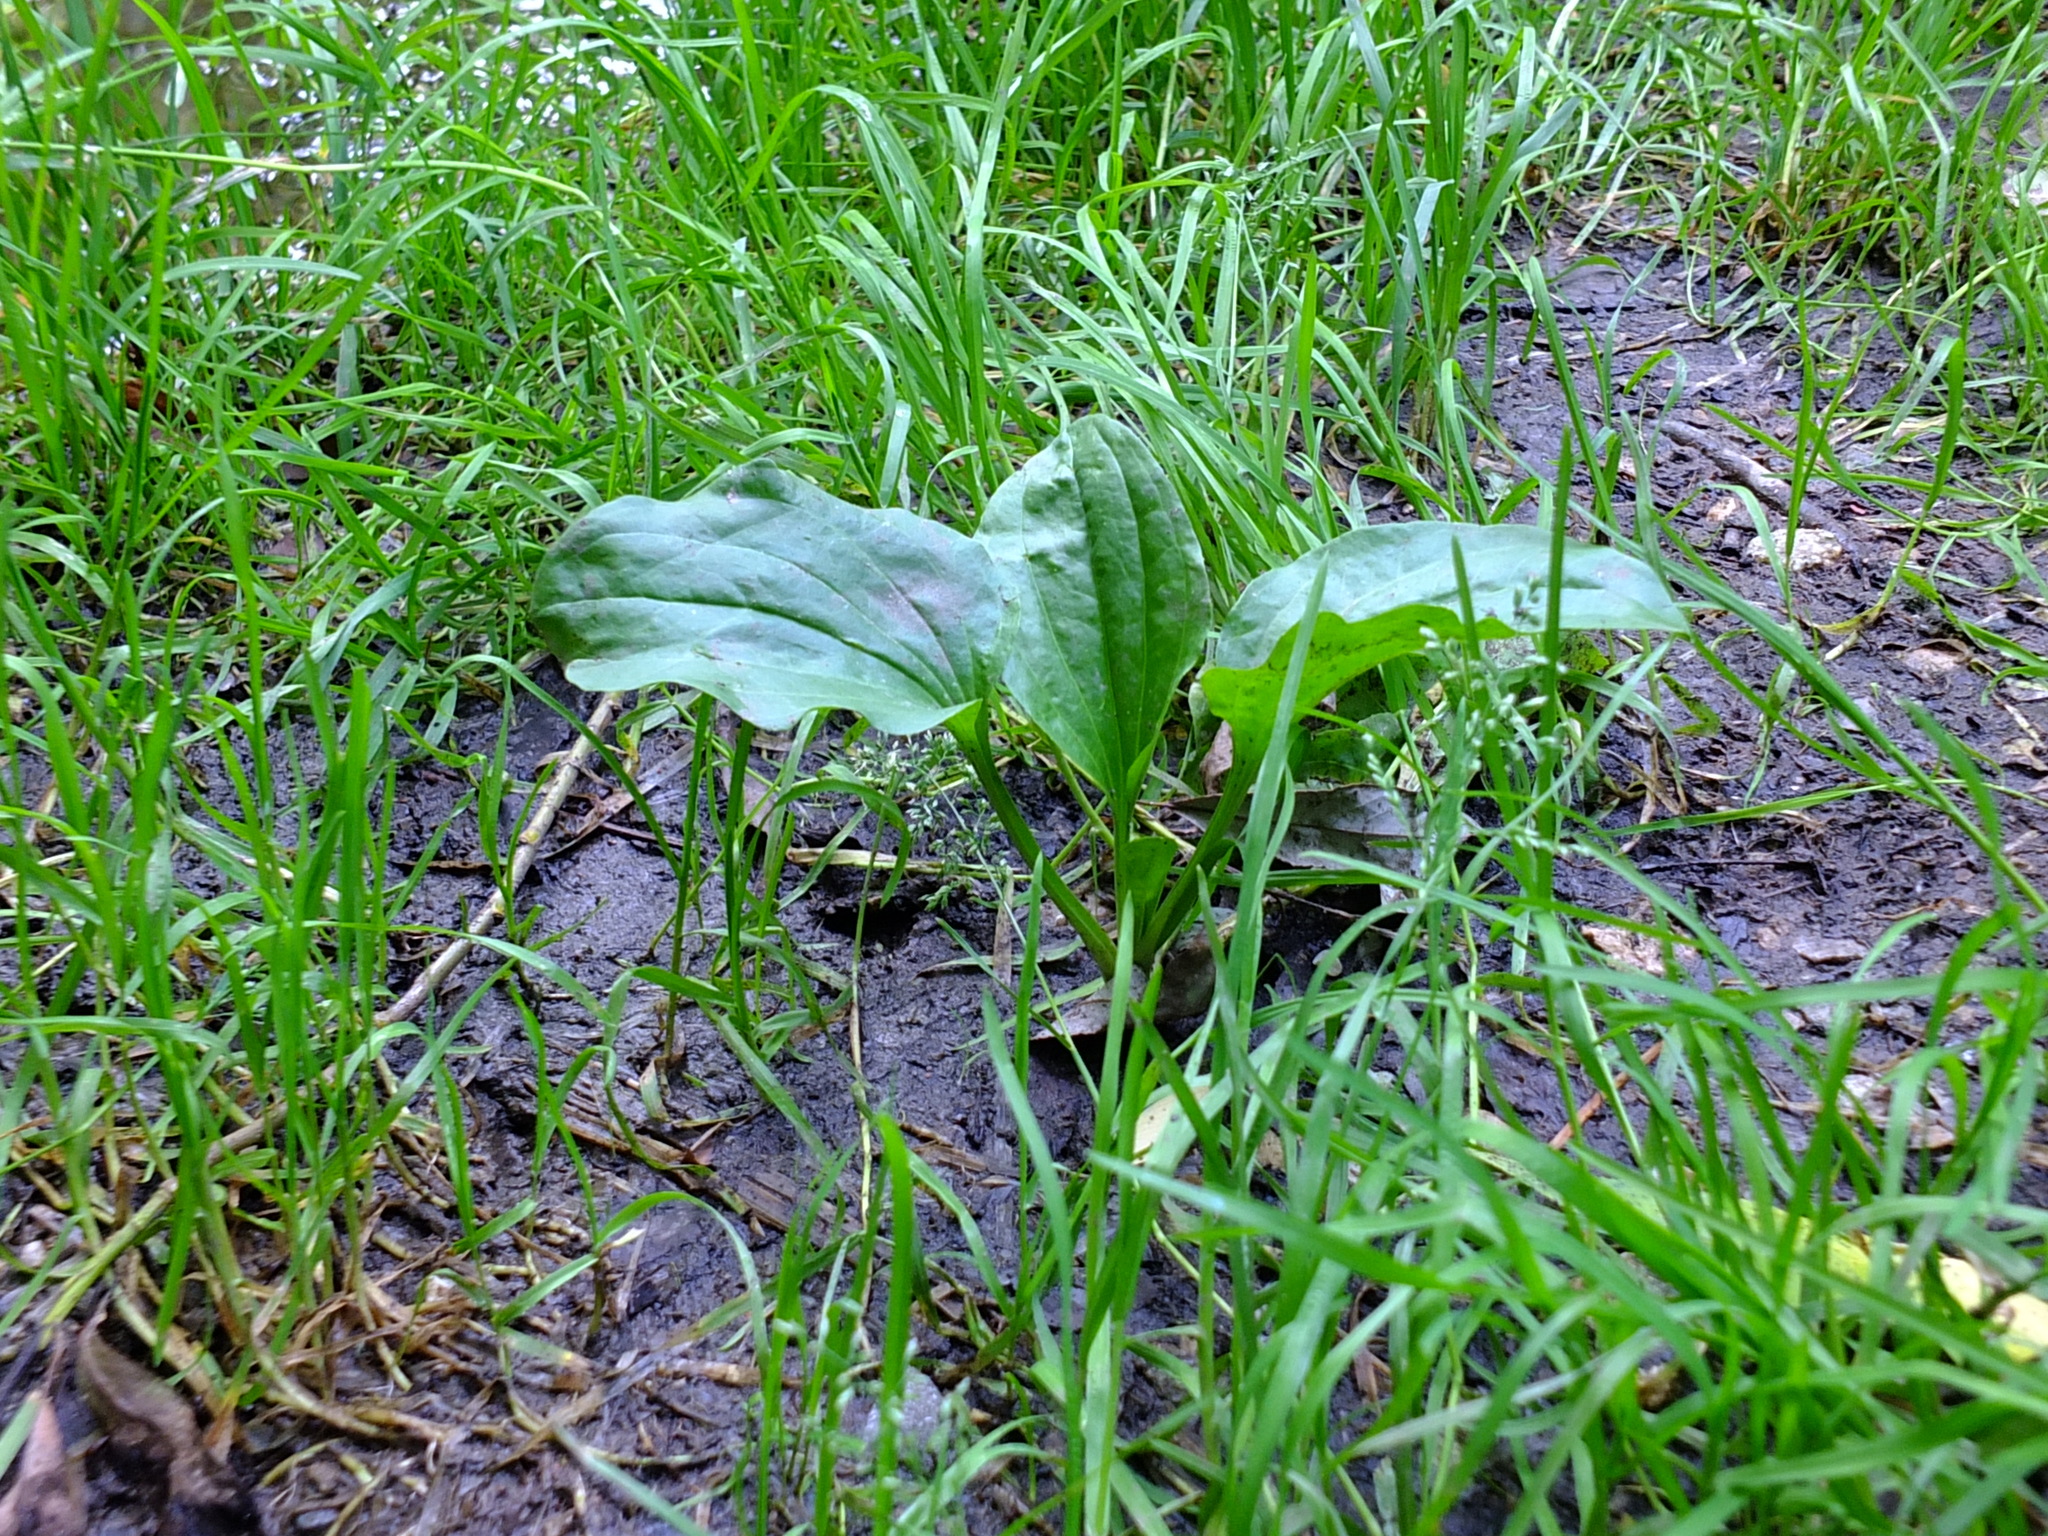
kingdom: Plantae
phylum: Tracheophyta
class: Magnoliopsida
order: Lamiales
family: Plantaginaceae
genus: Plantago
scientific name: Plantago major
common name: Common plantain
